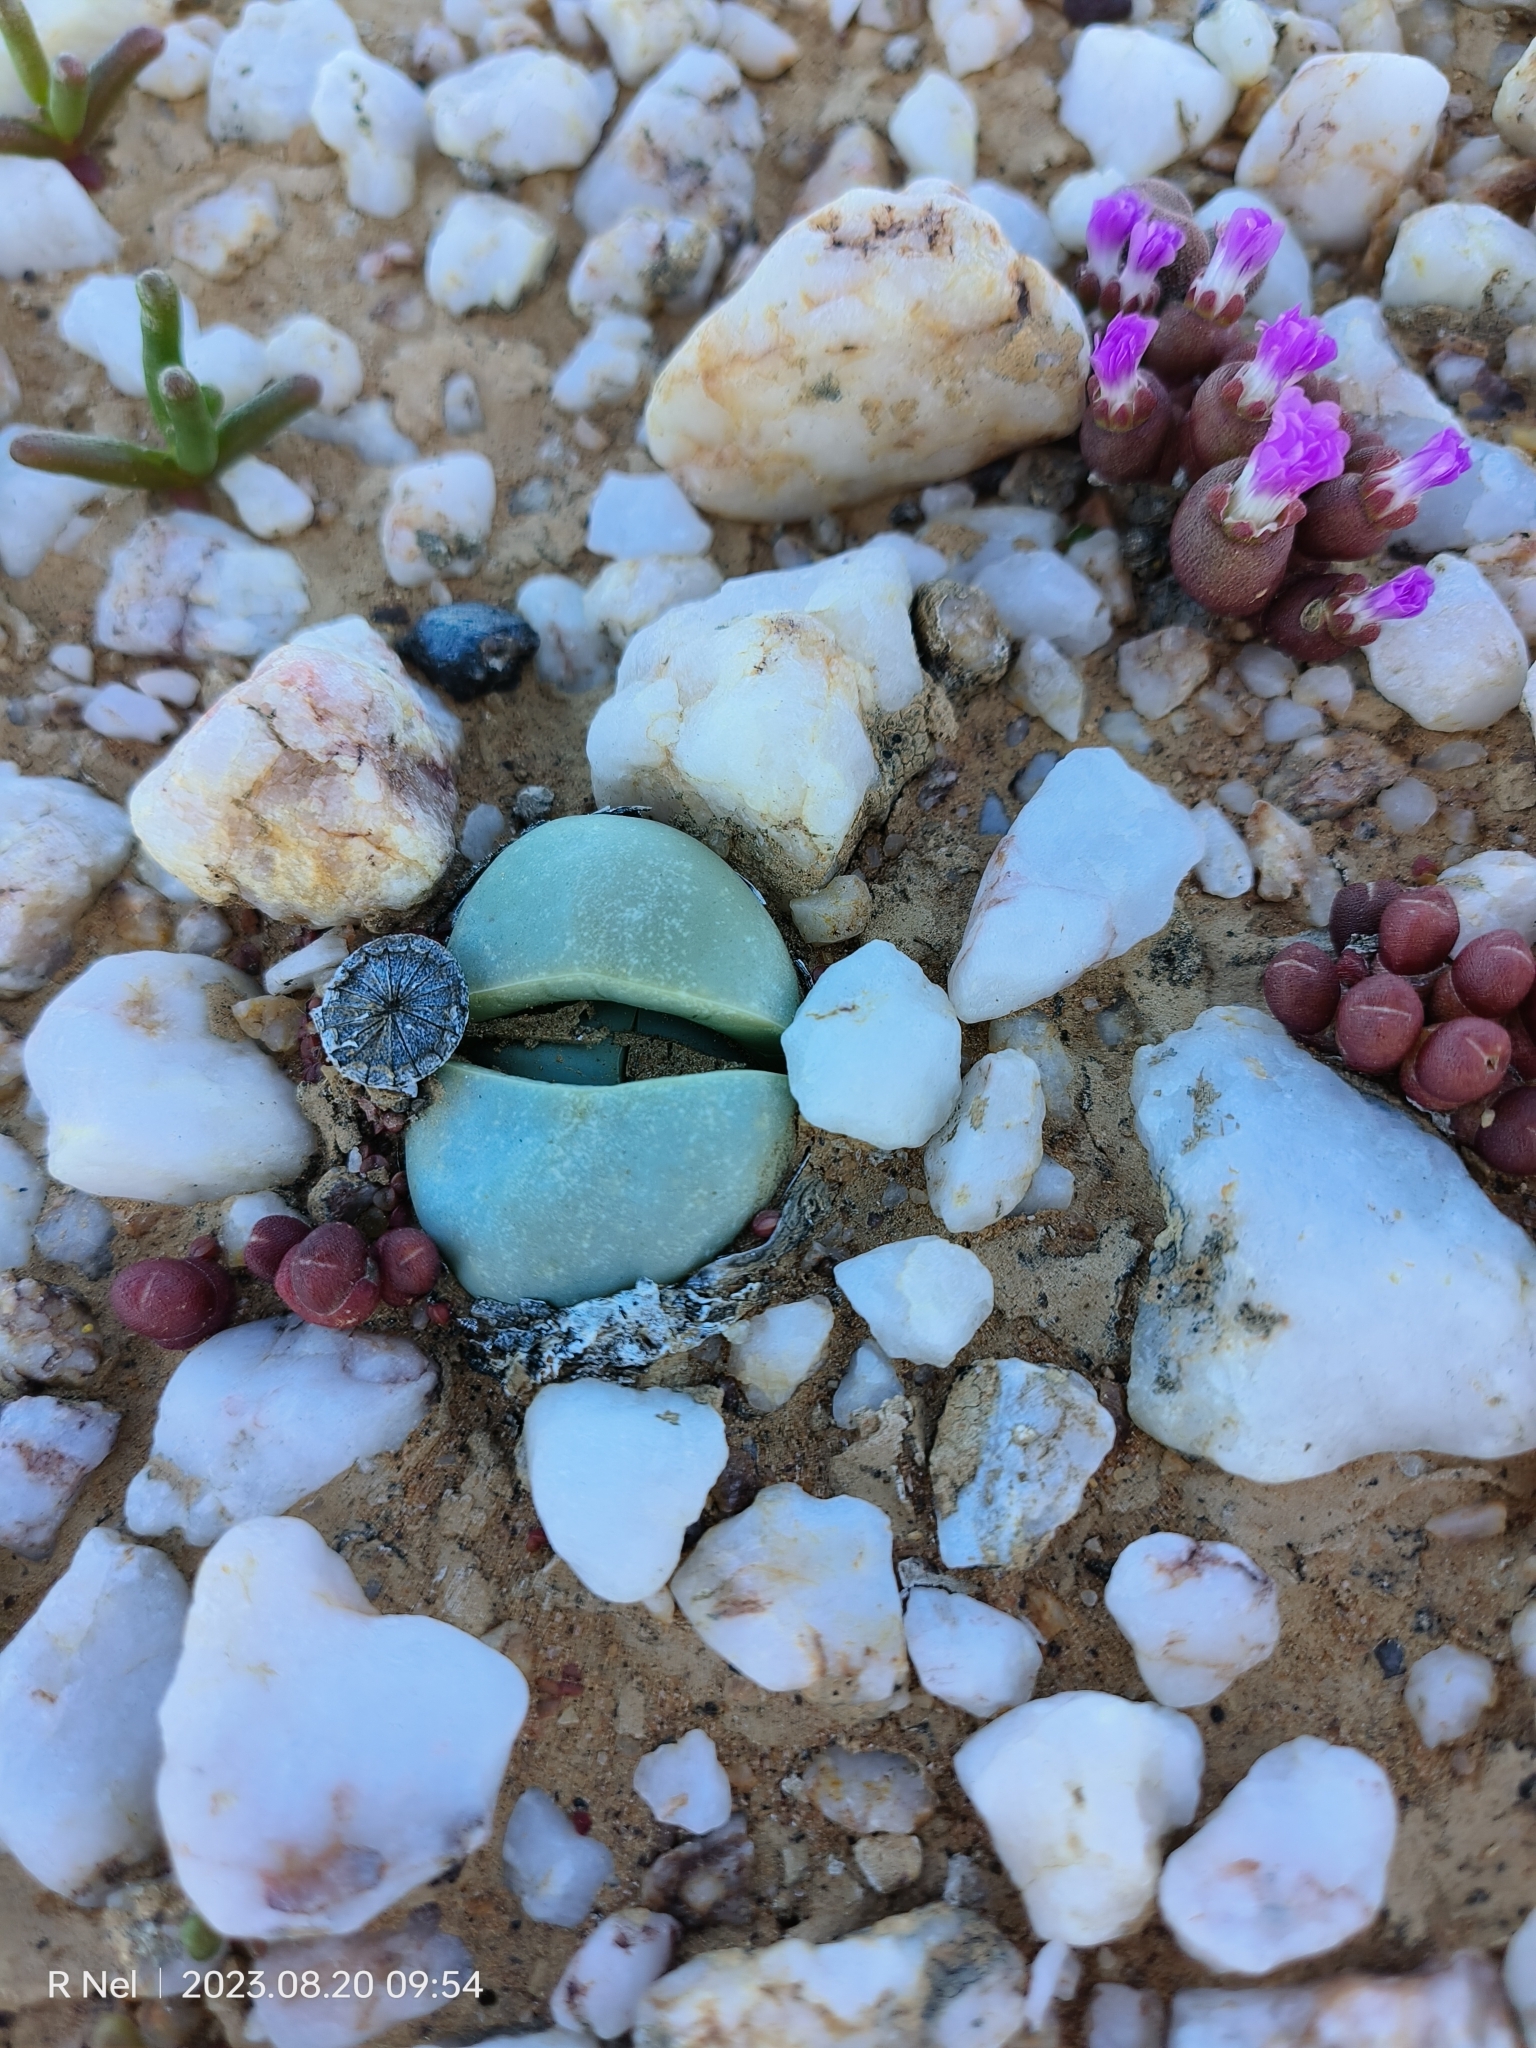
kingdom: Plantae
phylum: Tracheophyta
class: Magnoliopsida
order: Caryophyllales
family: Aizoaceae
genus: Argyroderma
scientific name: Argyroderma delaetii
